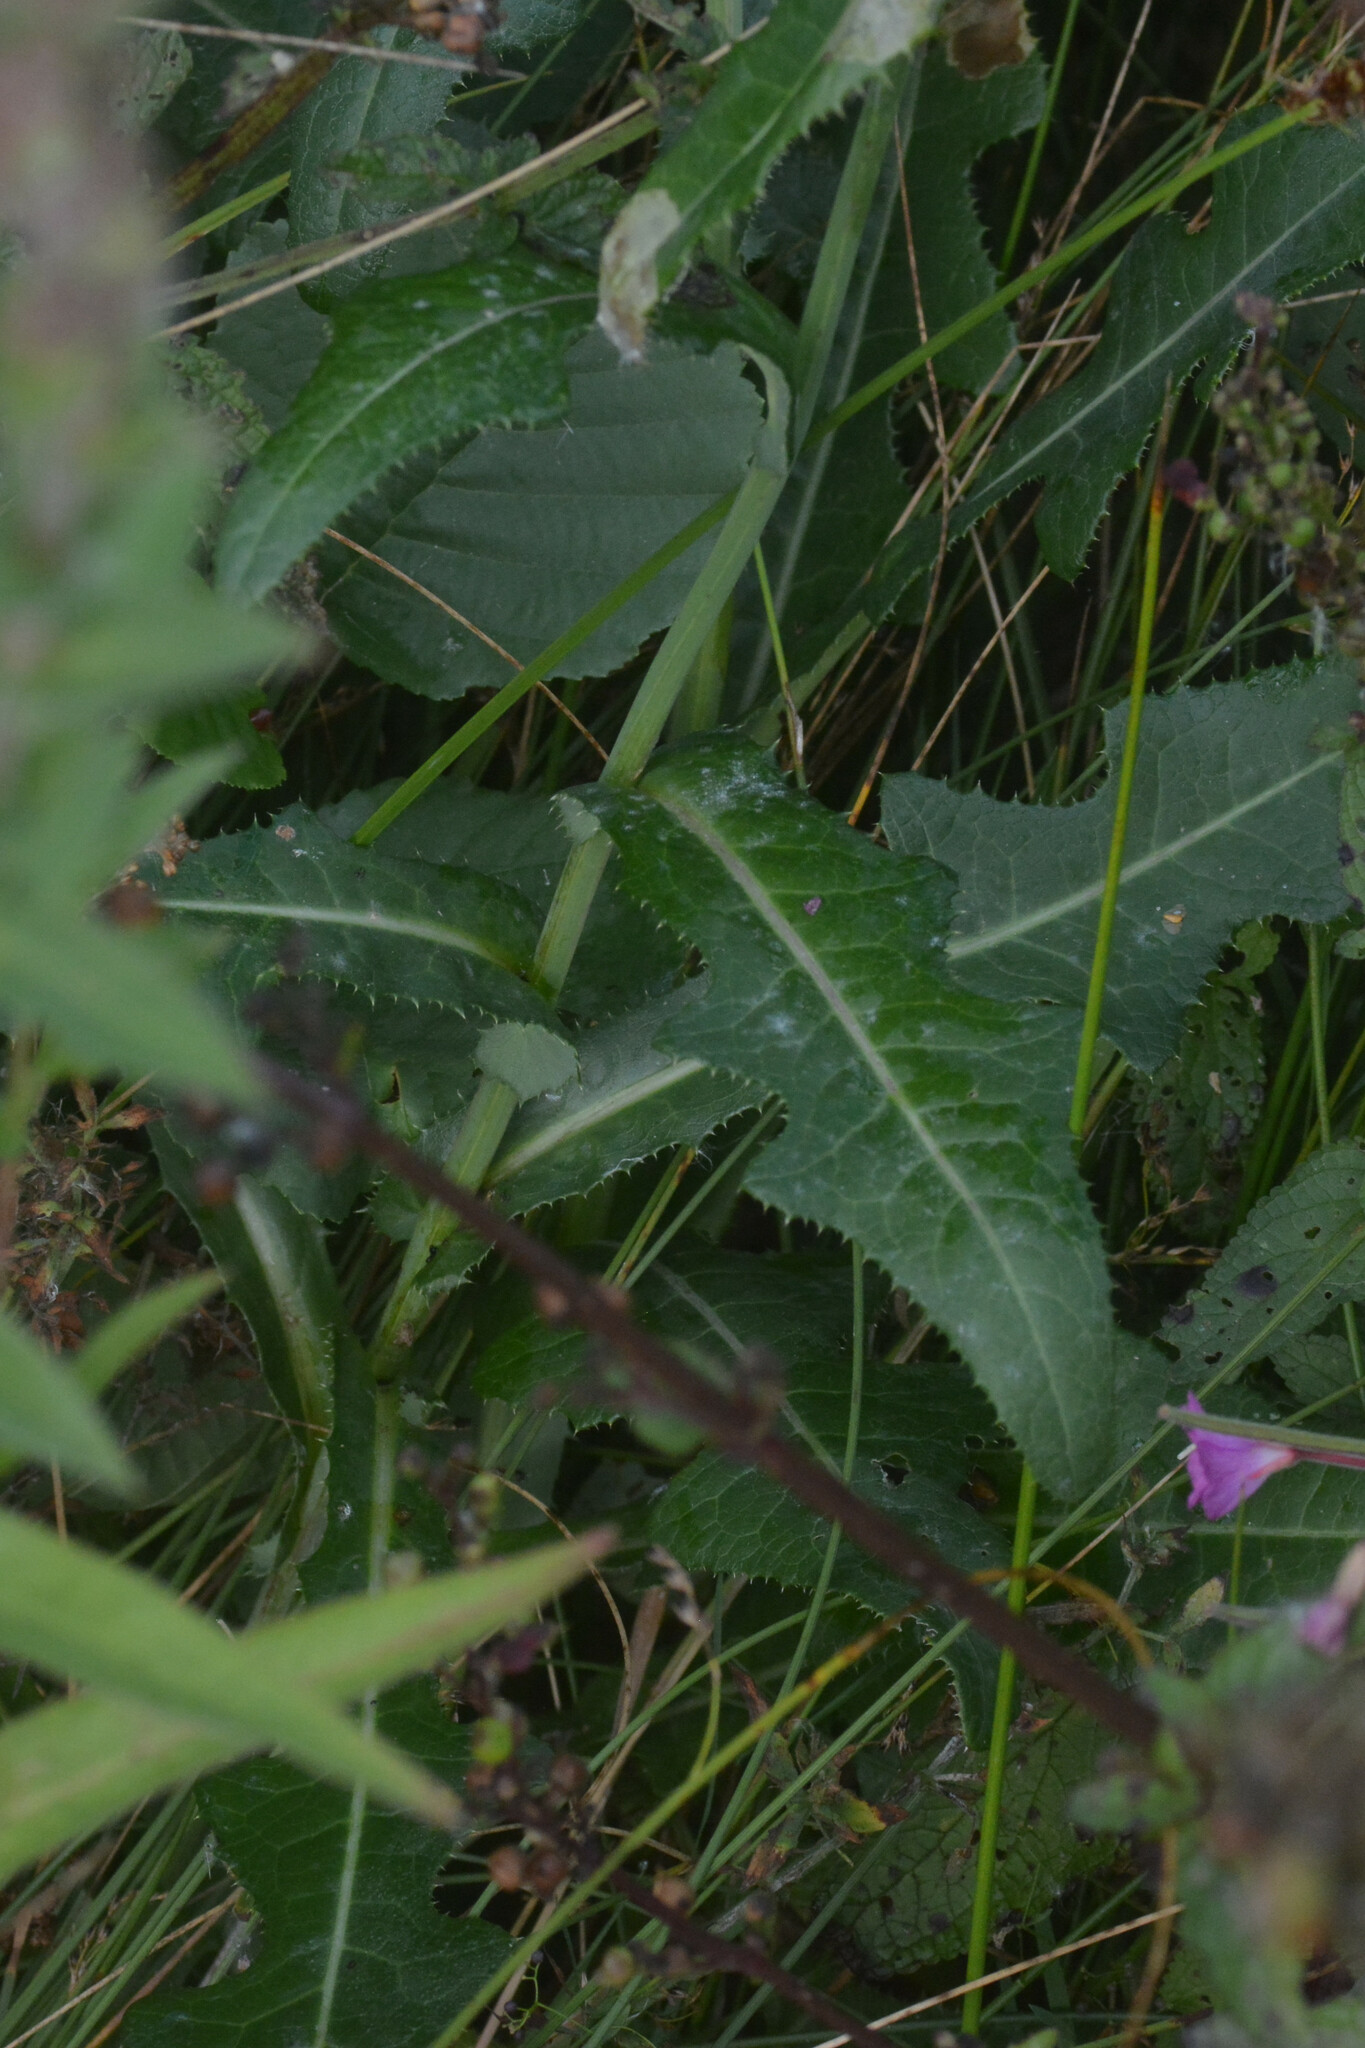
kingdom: Plantae
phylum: Tracheophyta
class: Magnoliopsida
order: Asterales
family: Asteraceae
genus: Sonchus
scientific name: Sonchus arvensis
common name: Perennial sow-thistle
